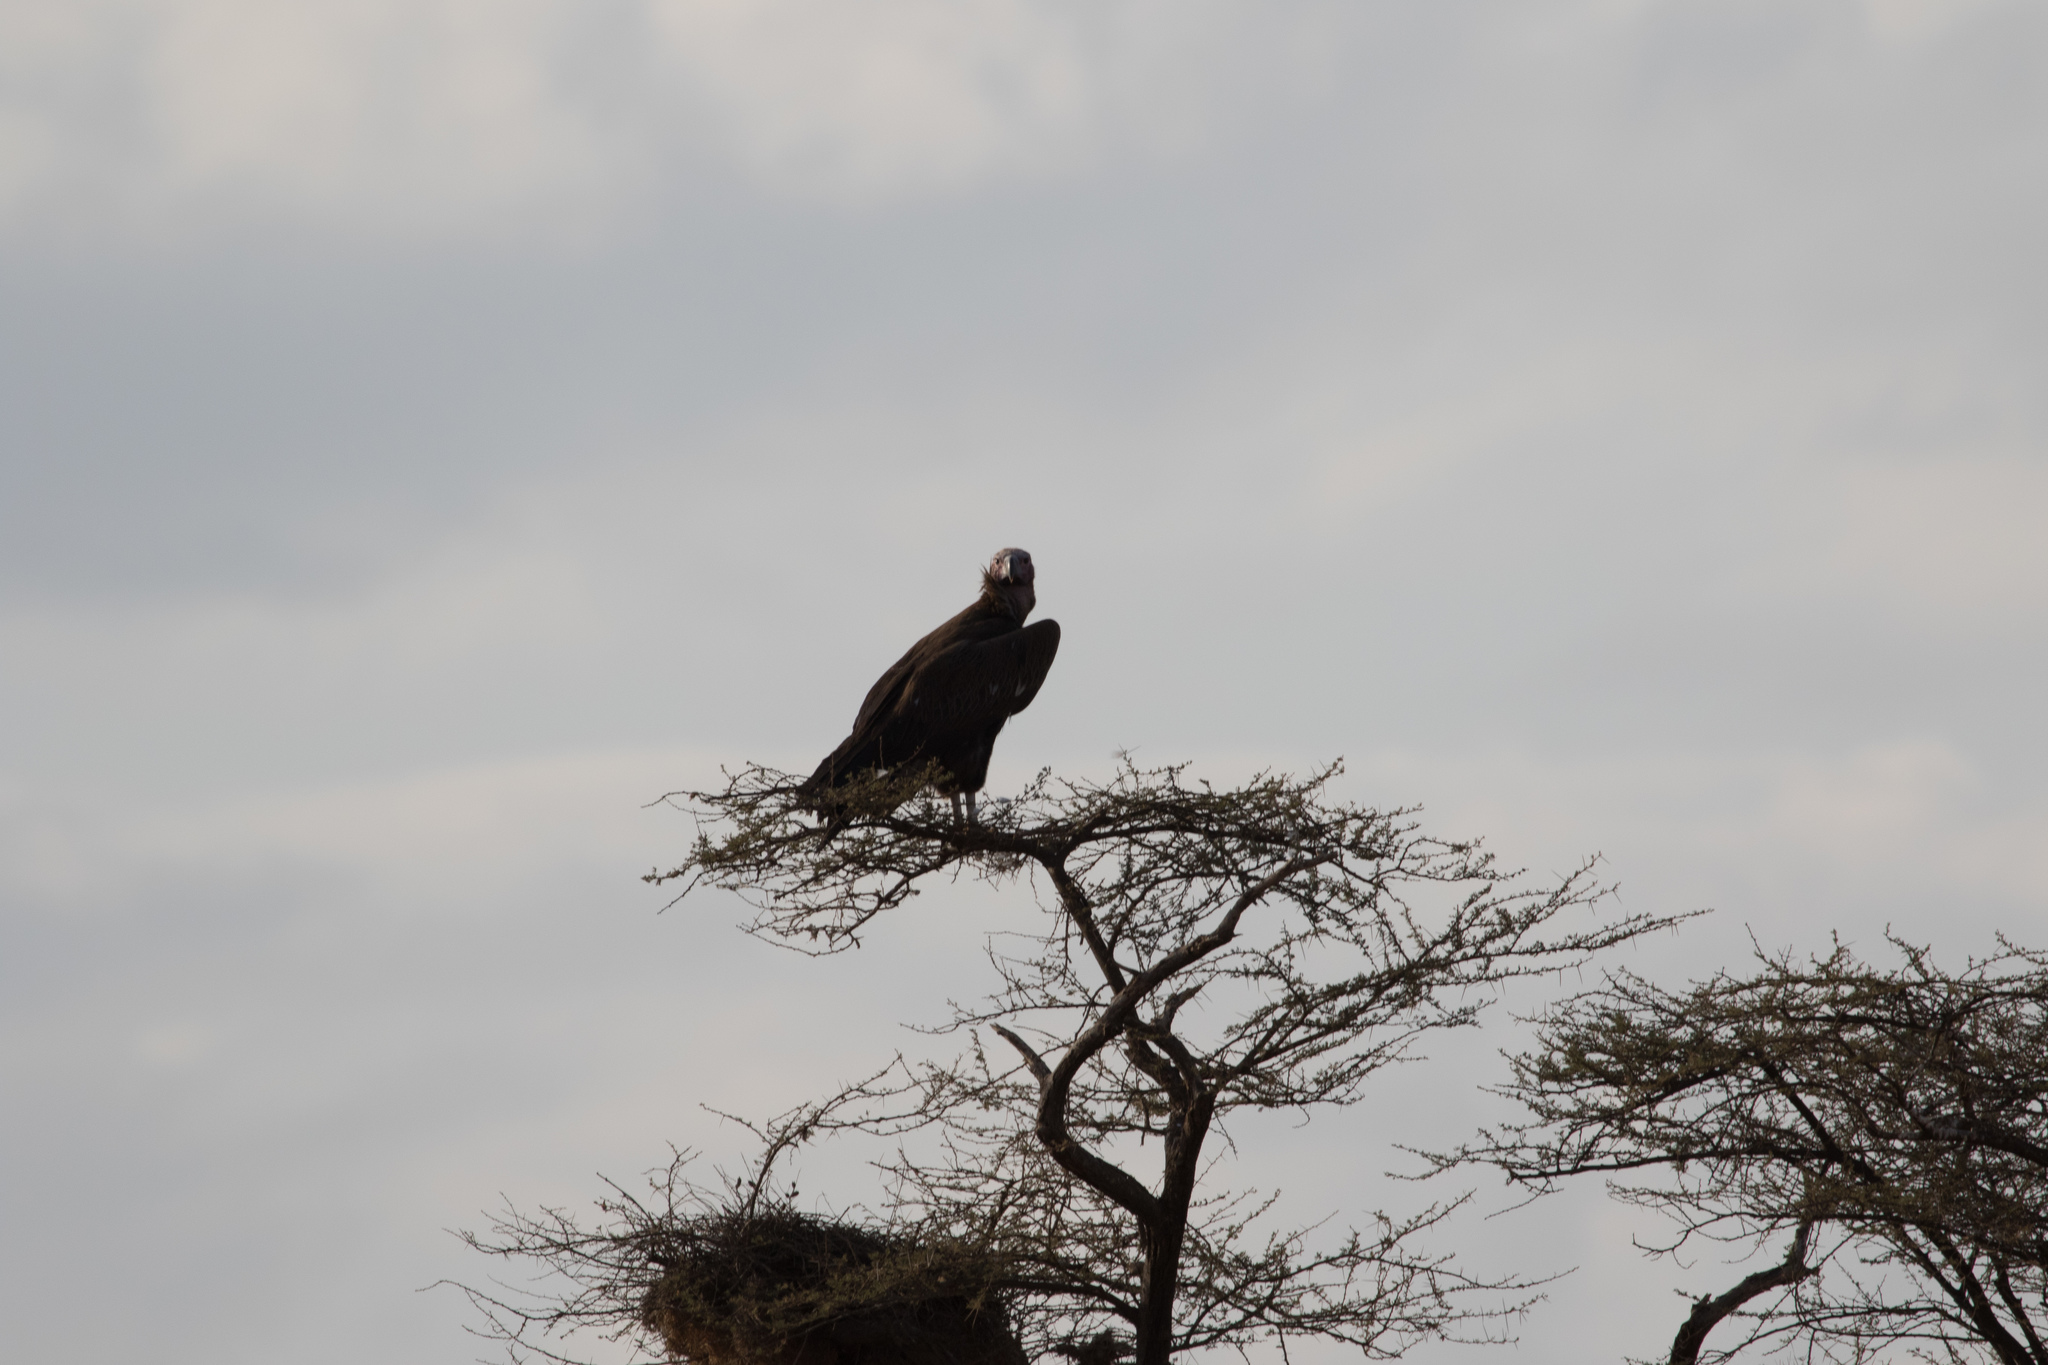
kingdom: Animalia
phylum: Chordata
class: Aves
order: Accipitriformes
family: Accipitridae
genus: Torgos
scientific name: Torgos tracheliotos
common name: Lappet-faced vulture
